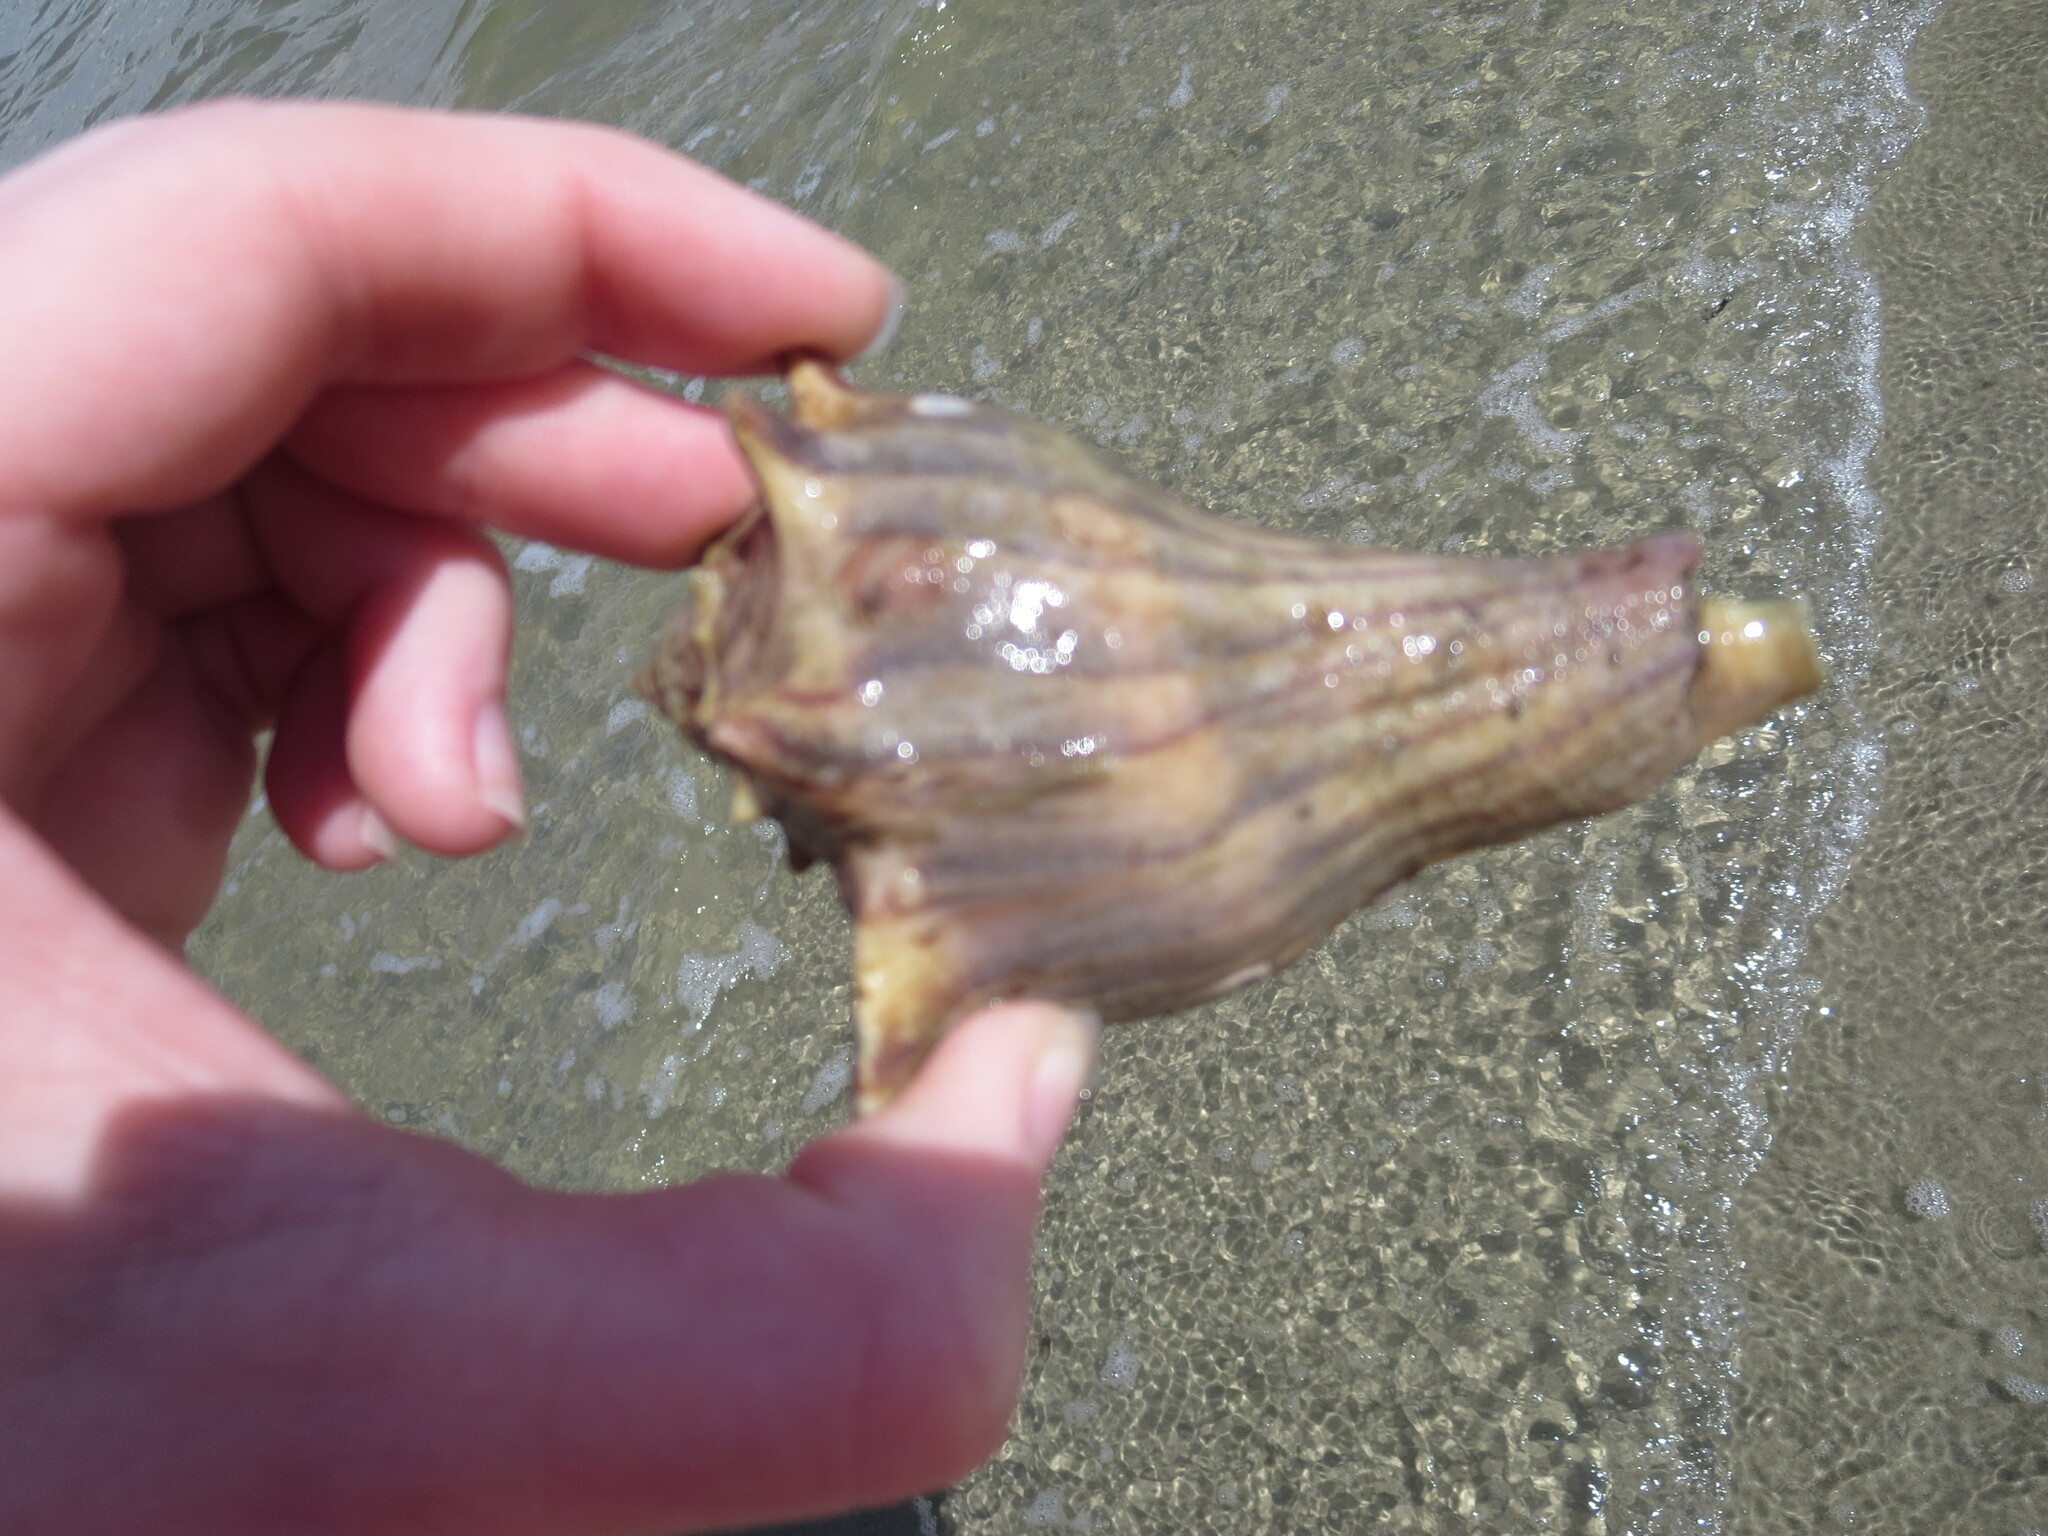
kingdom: Animalia
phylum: Arthropoda
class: Malacostraca
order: Decapoda
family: Diogenidae
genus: Clibanarius
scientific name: Clibanarius vittatus
